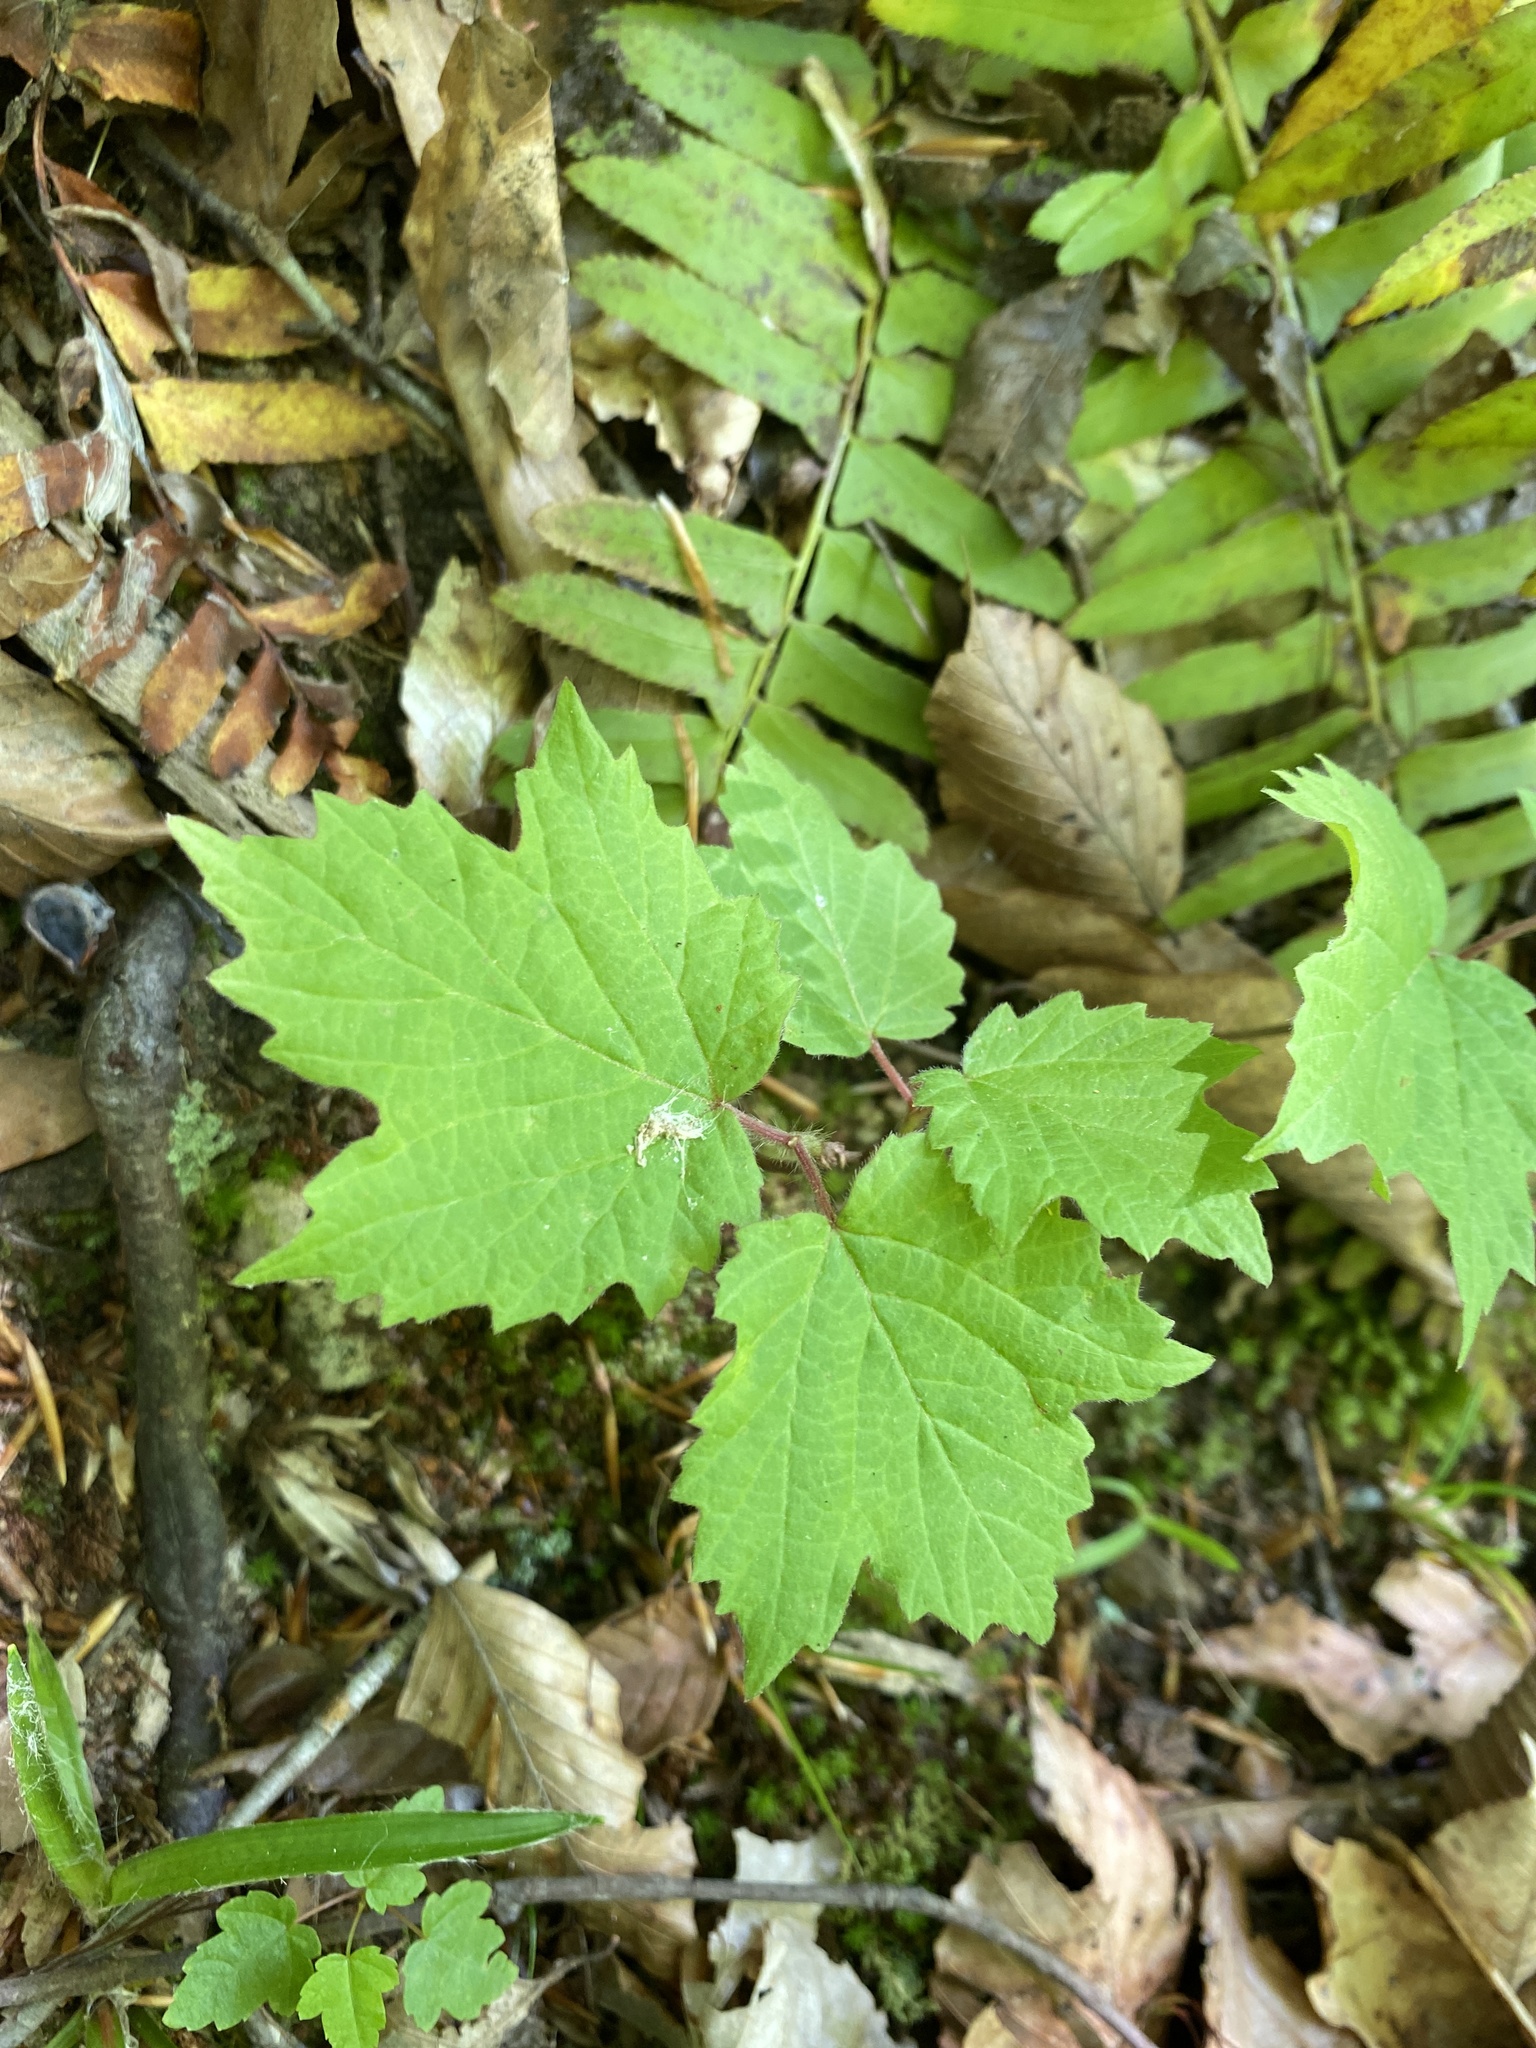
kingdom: Plantae
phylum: Tracheophyta
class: Magnoliopsida
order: Dipsacales
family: Viburnaceae
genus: Viburnum
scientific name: Viburnum acerifolium
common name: Dockmackie
